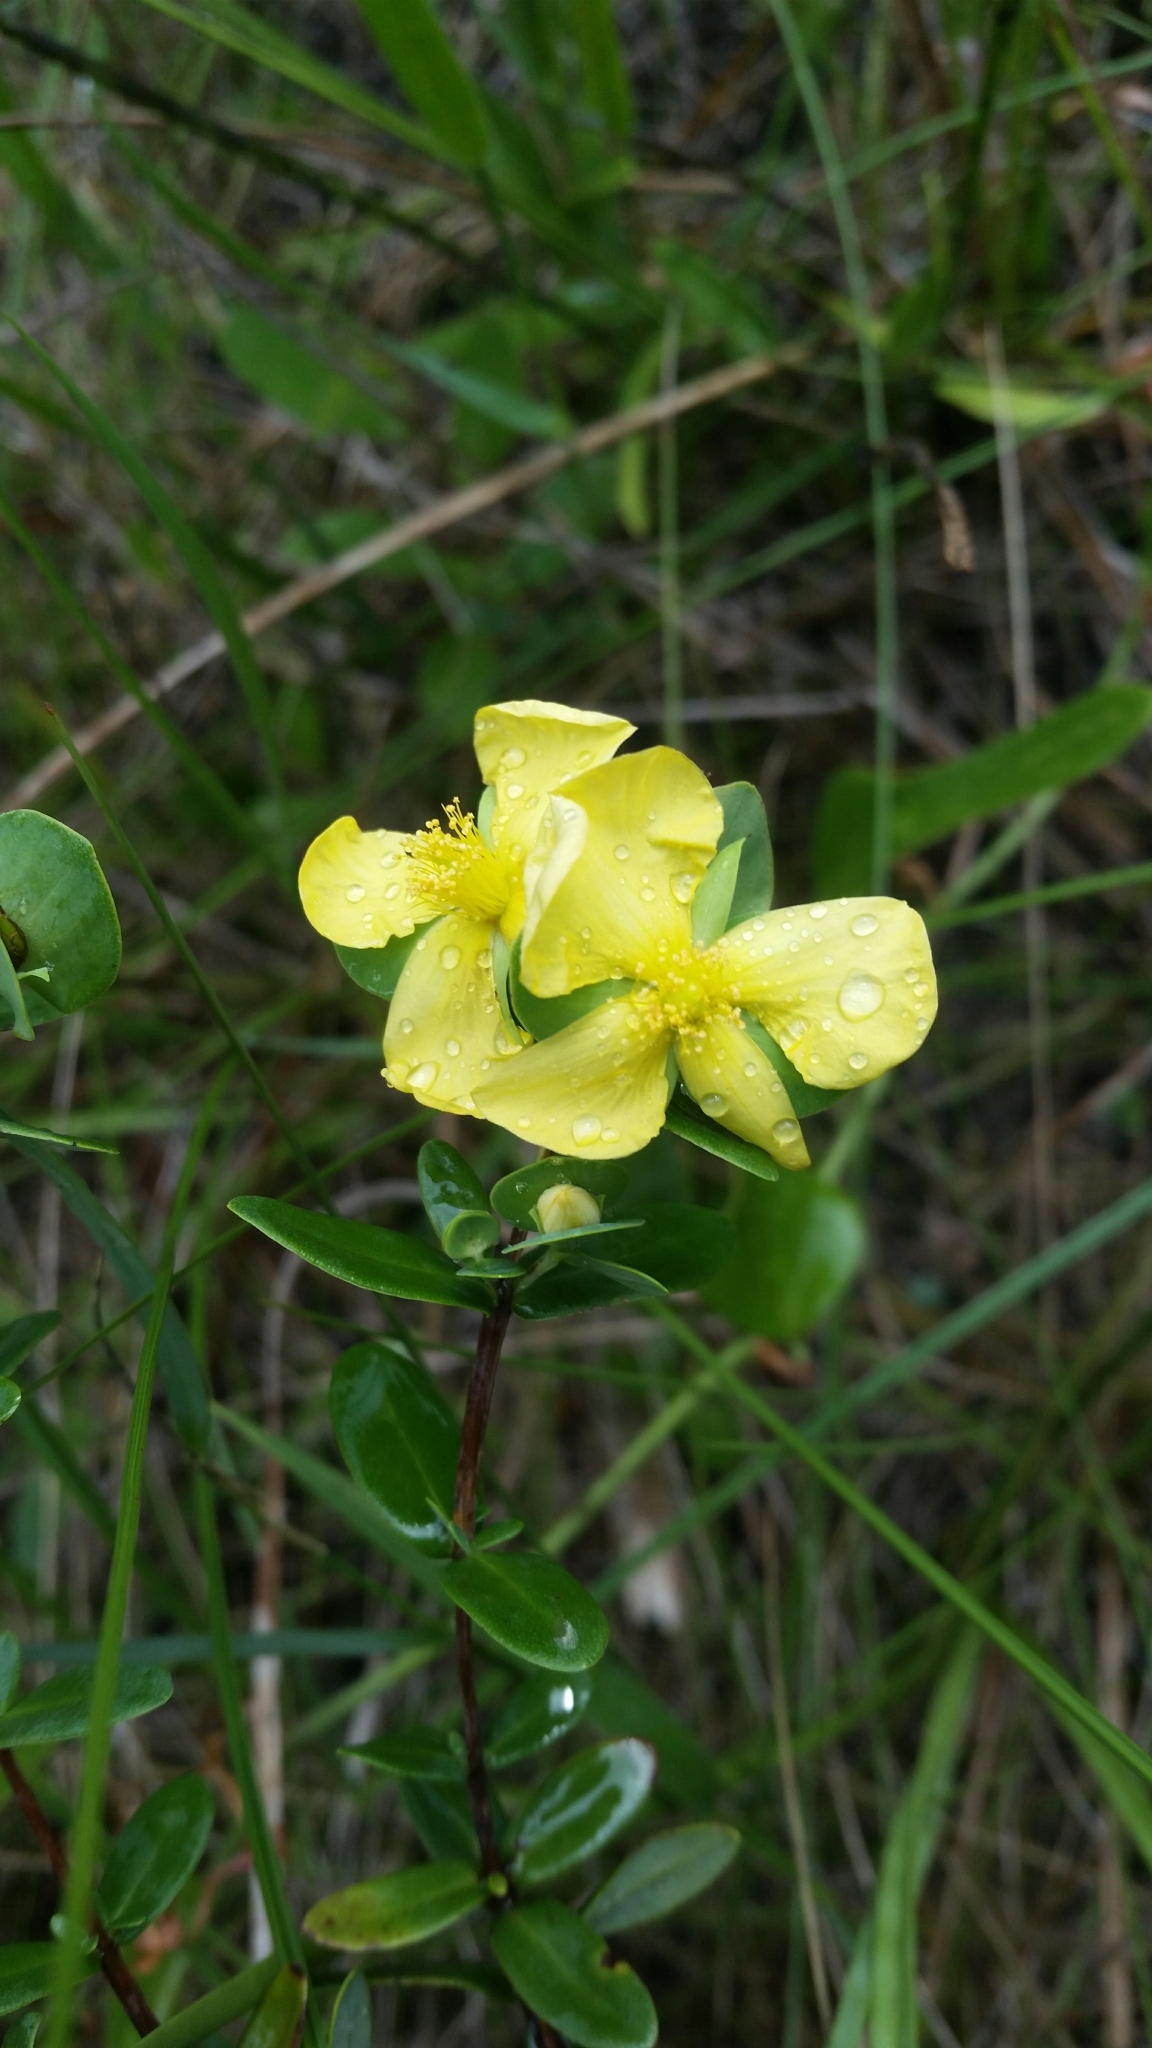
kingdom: Plantae
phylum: Tracheophyta
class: Magnoliopsida
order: Malpighiales
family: Hypericaceae
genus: Hypericum
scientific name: Hypericum crux-andreae
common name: St.-peter's-wort
